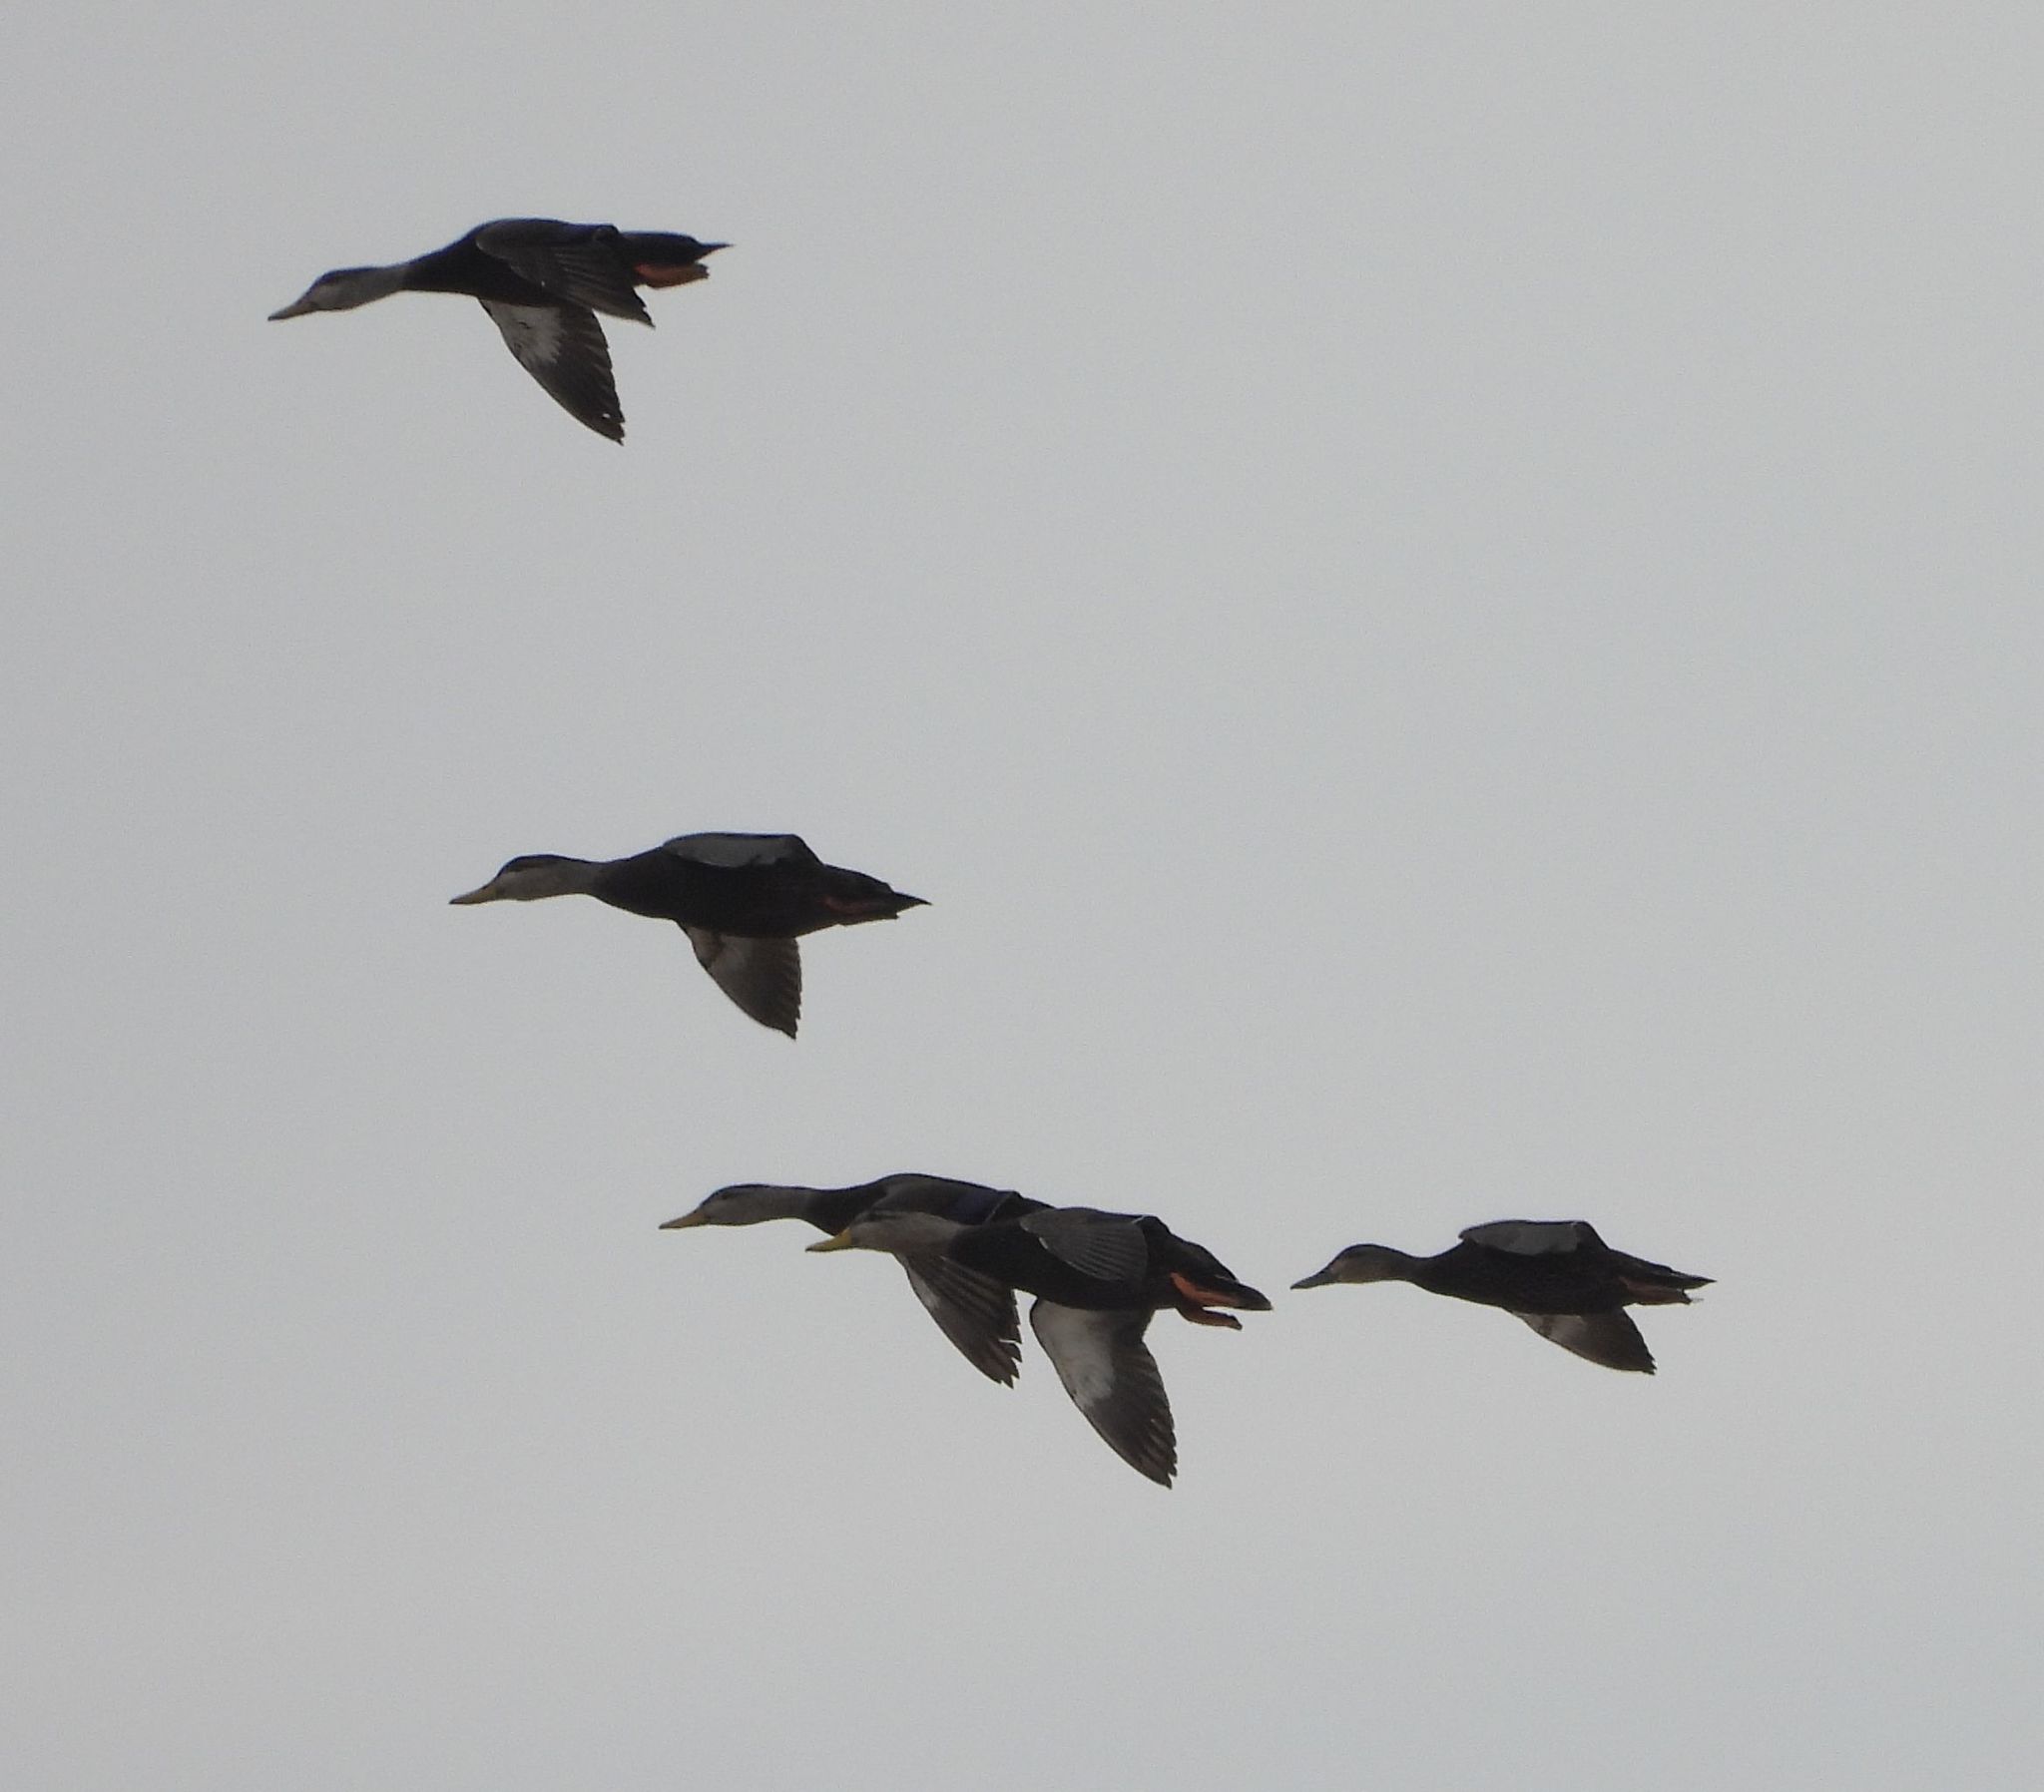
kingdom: Animalia
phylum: Chordata
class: Aves
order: Anseriformes
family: Anatidae
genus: Anas
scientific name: Anas rubripes
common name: American black duck
